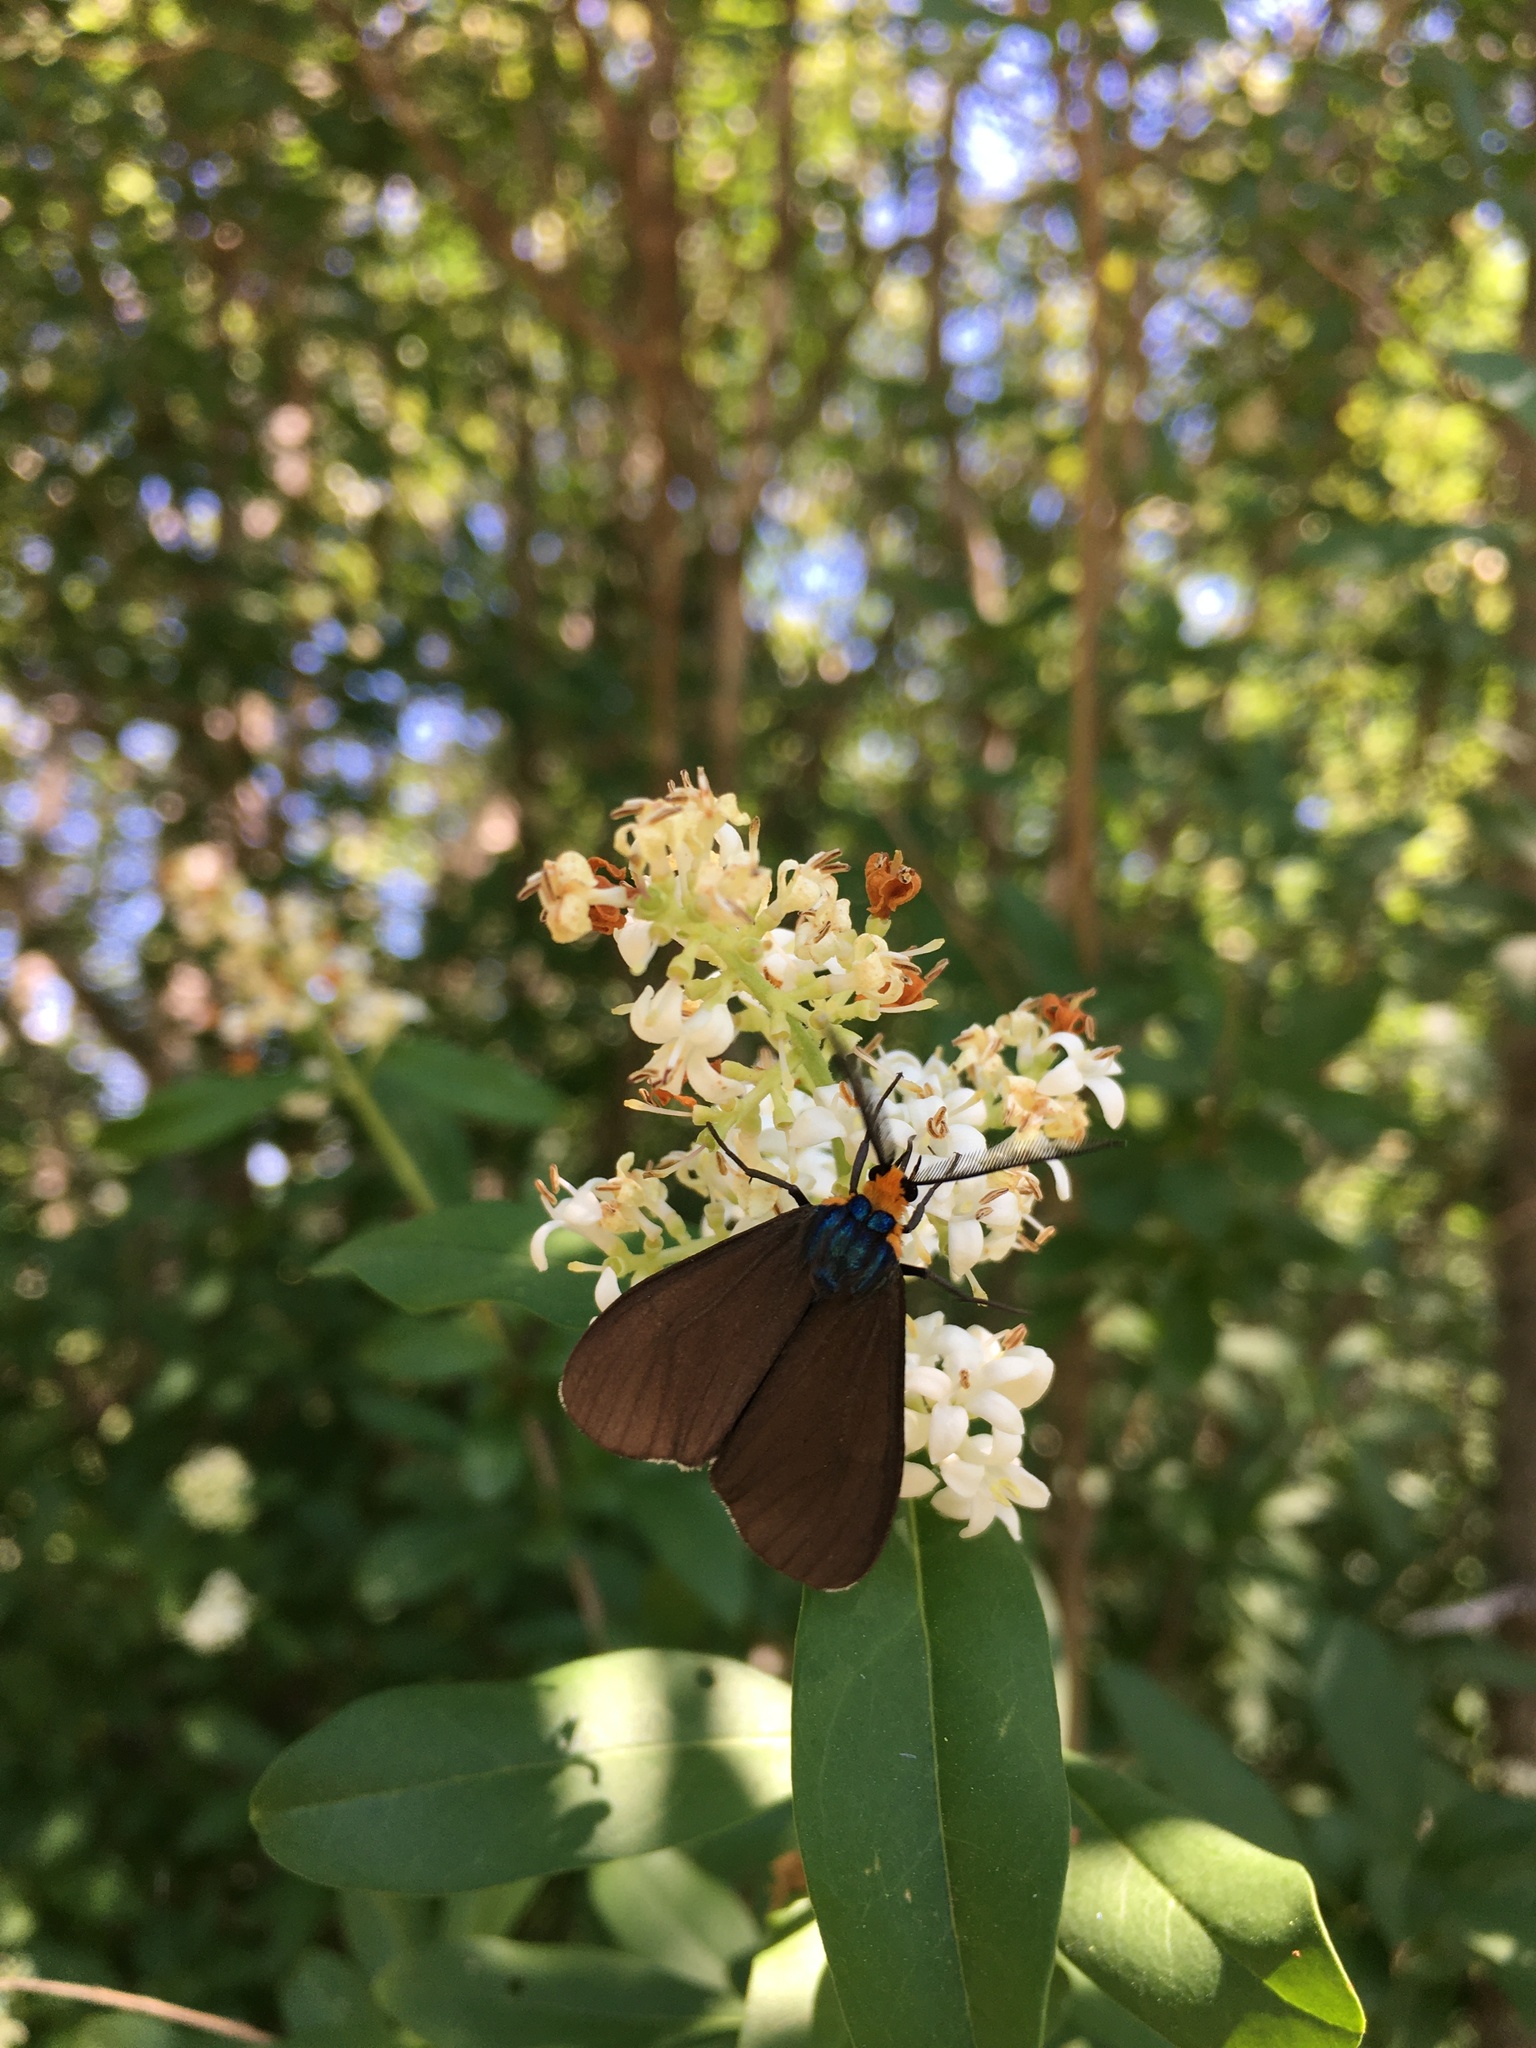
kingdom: Animalia
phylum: Arthropoda
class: Insecta
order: Lepidoptera
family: Erebidae
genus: Ctenucha
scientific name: Ctenucha virginica
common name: Virginia ctenucha moth
